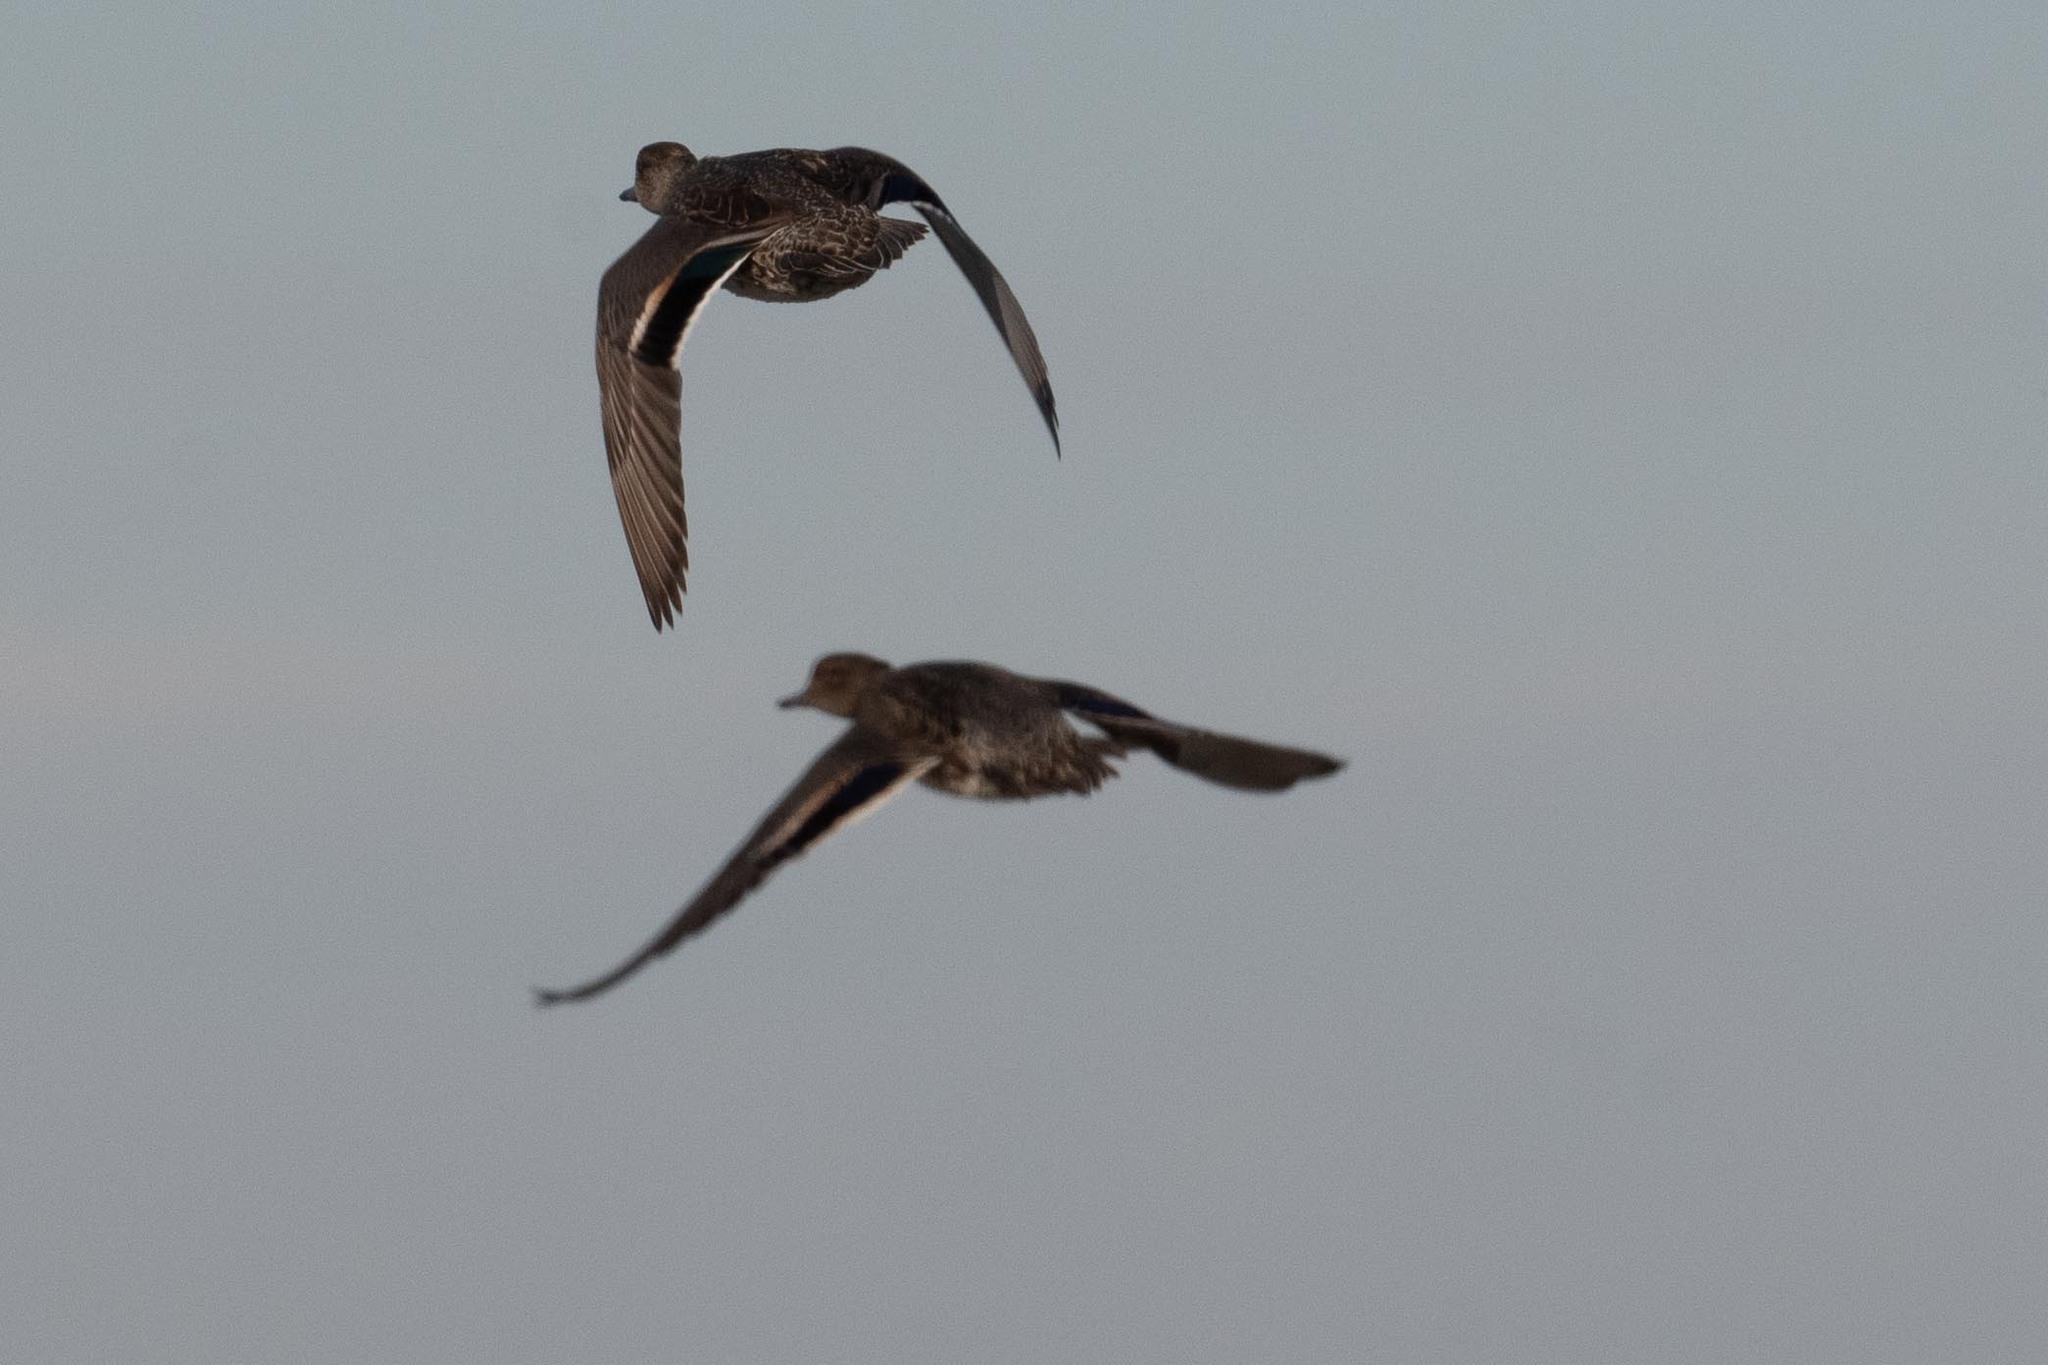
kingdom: Animalia
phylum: Chordata
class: Aves
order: Anseriformes
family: Anatidae
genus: Anas
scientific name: Anas crecca
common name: Eurasian teal
